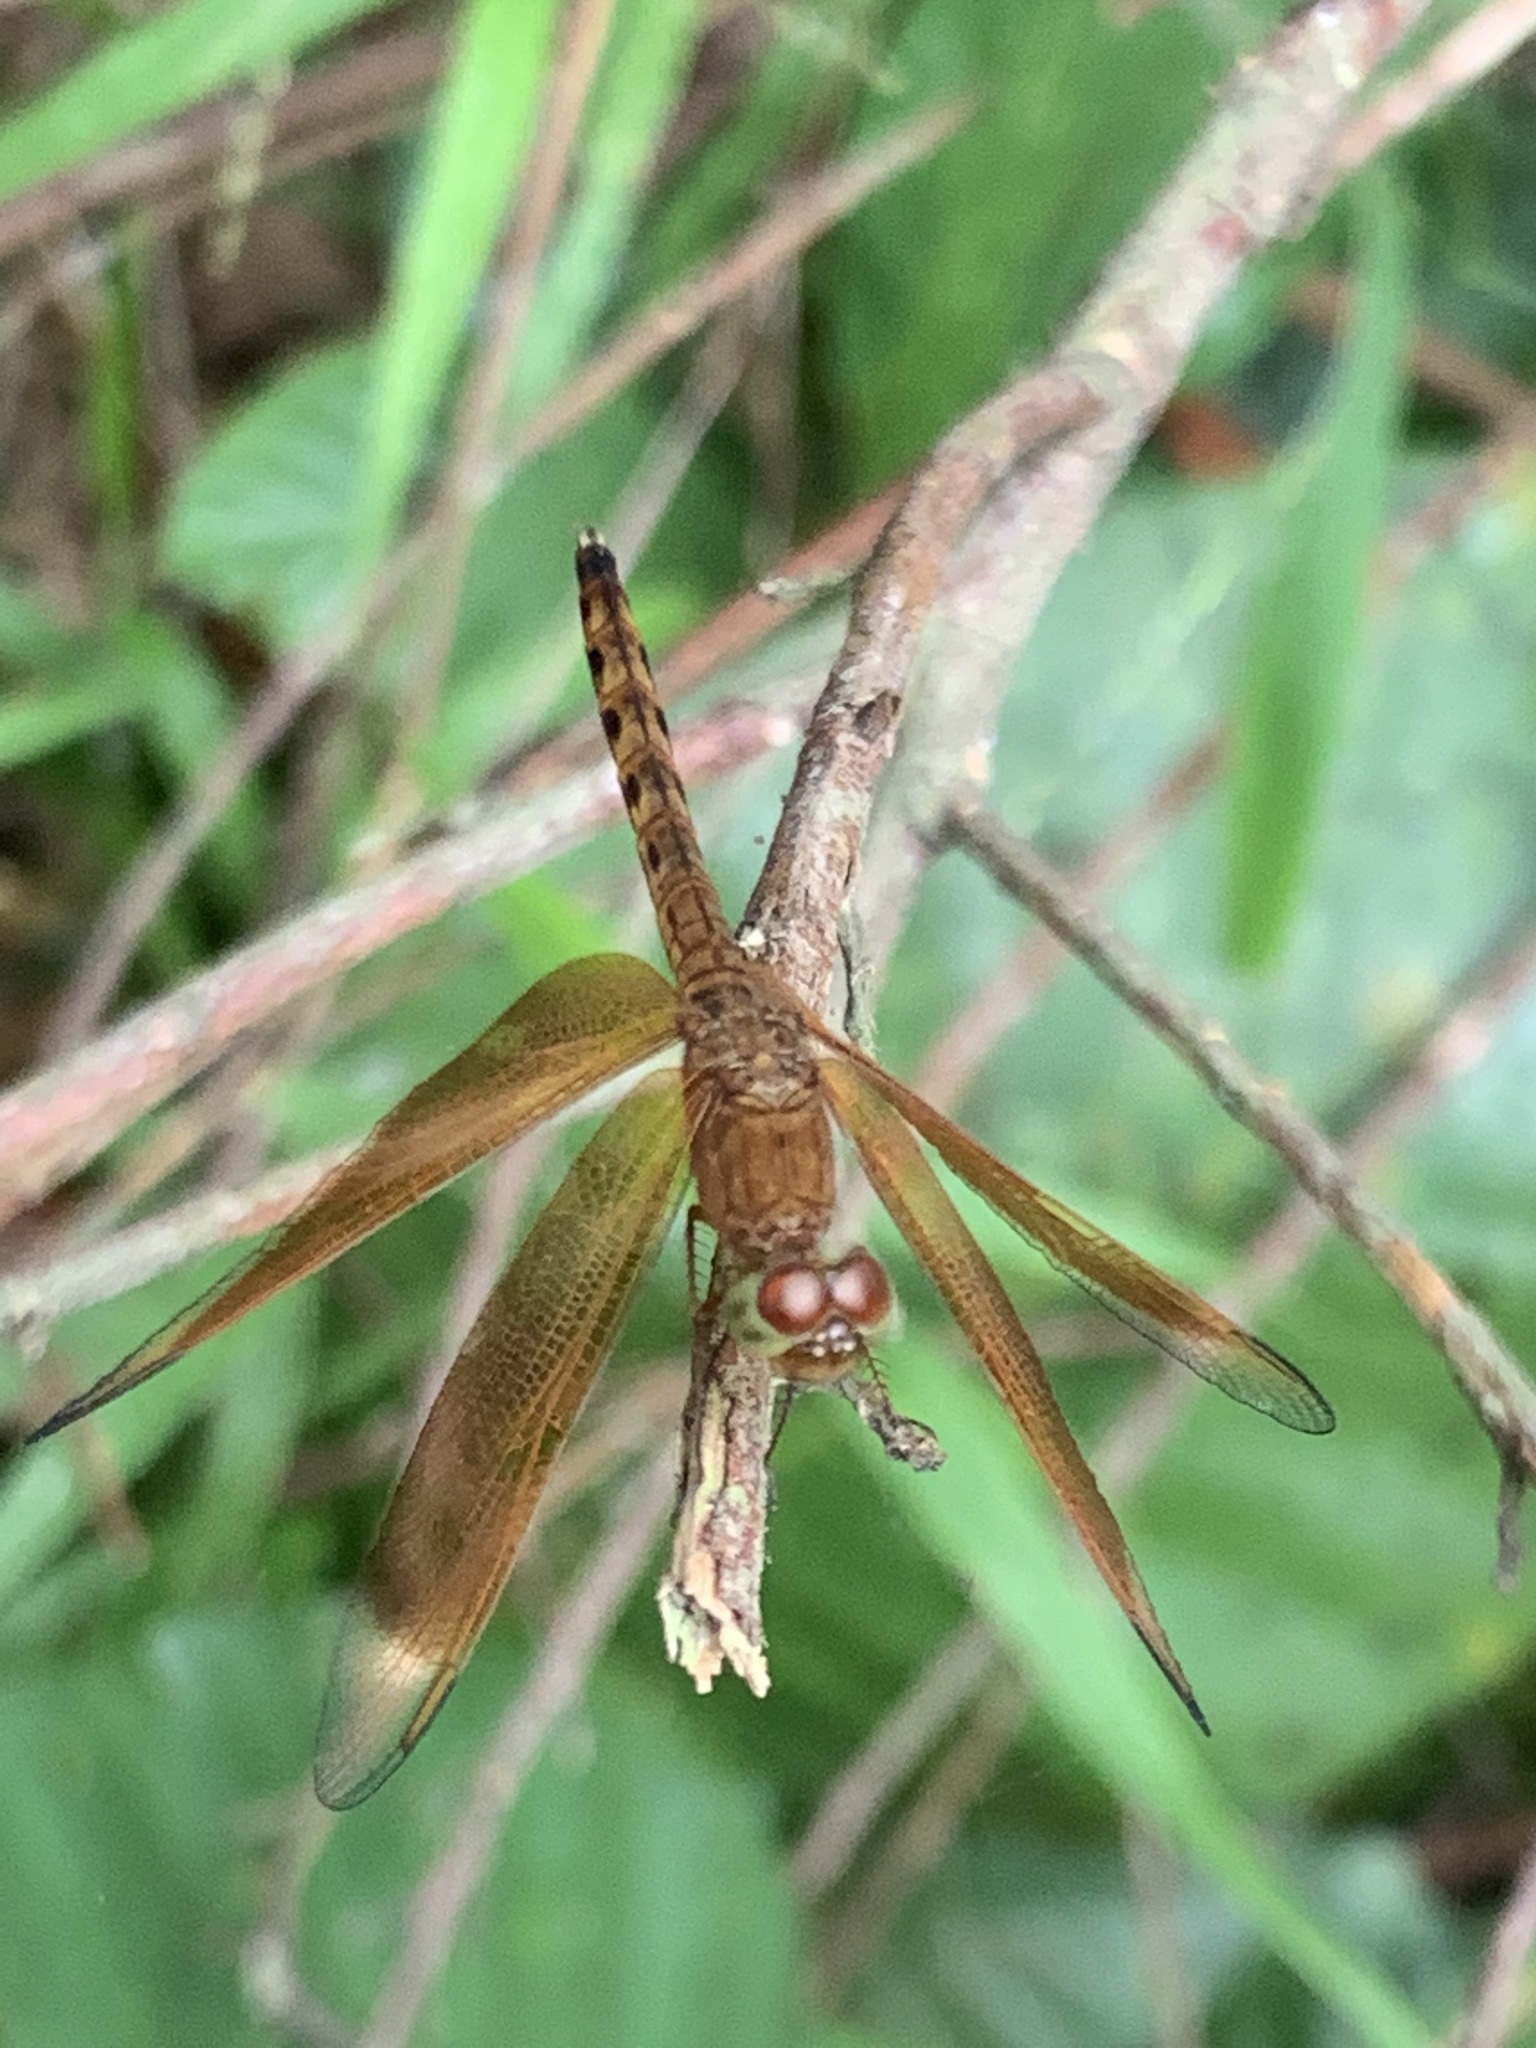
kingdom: Animalia
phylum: Arthropoda
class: Insecta
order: Odonata
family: Libellulidae
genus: Neurothemis
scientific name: Neurothemis fluctuans
